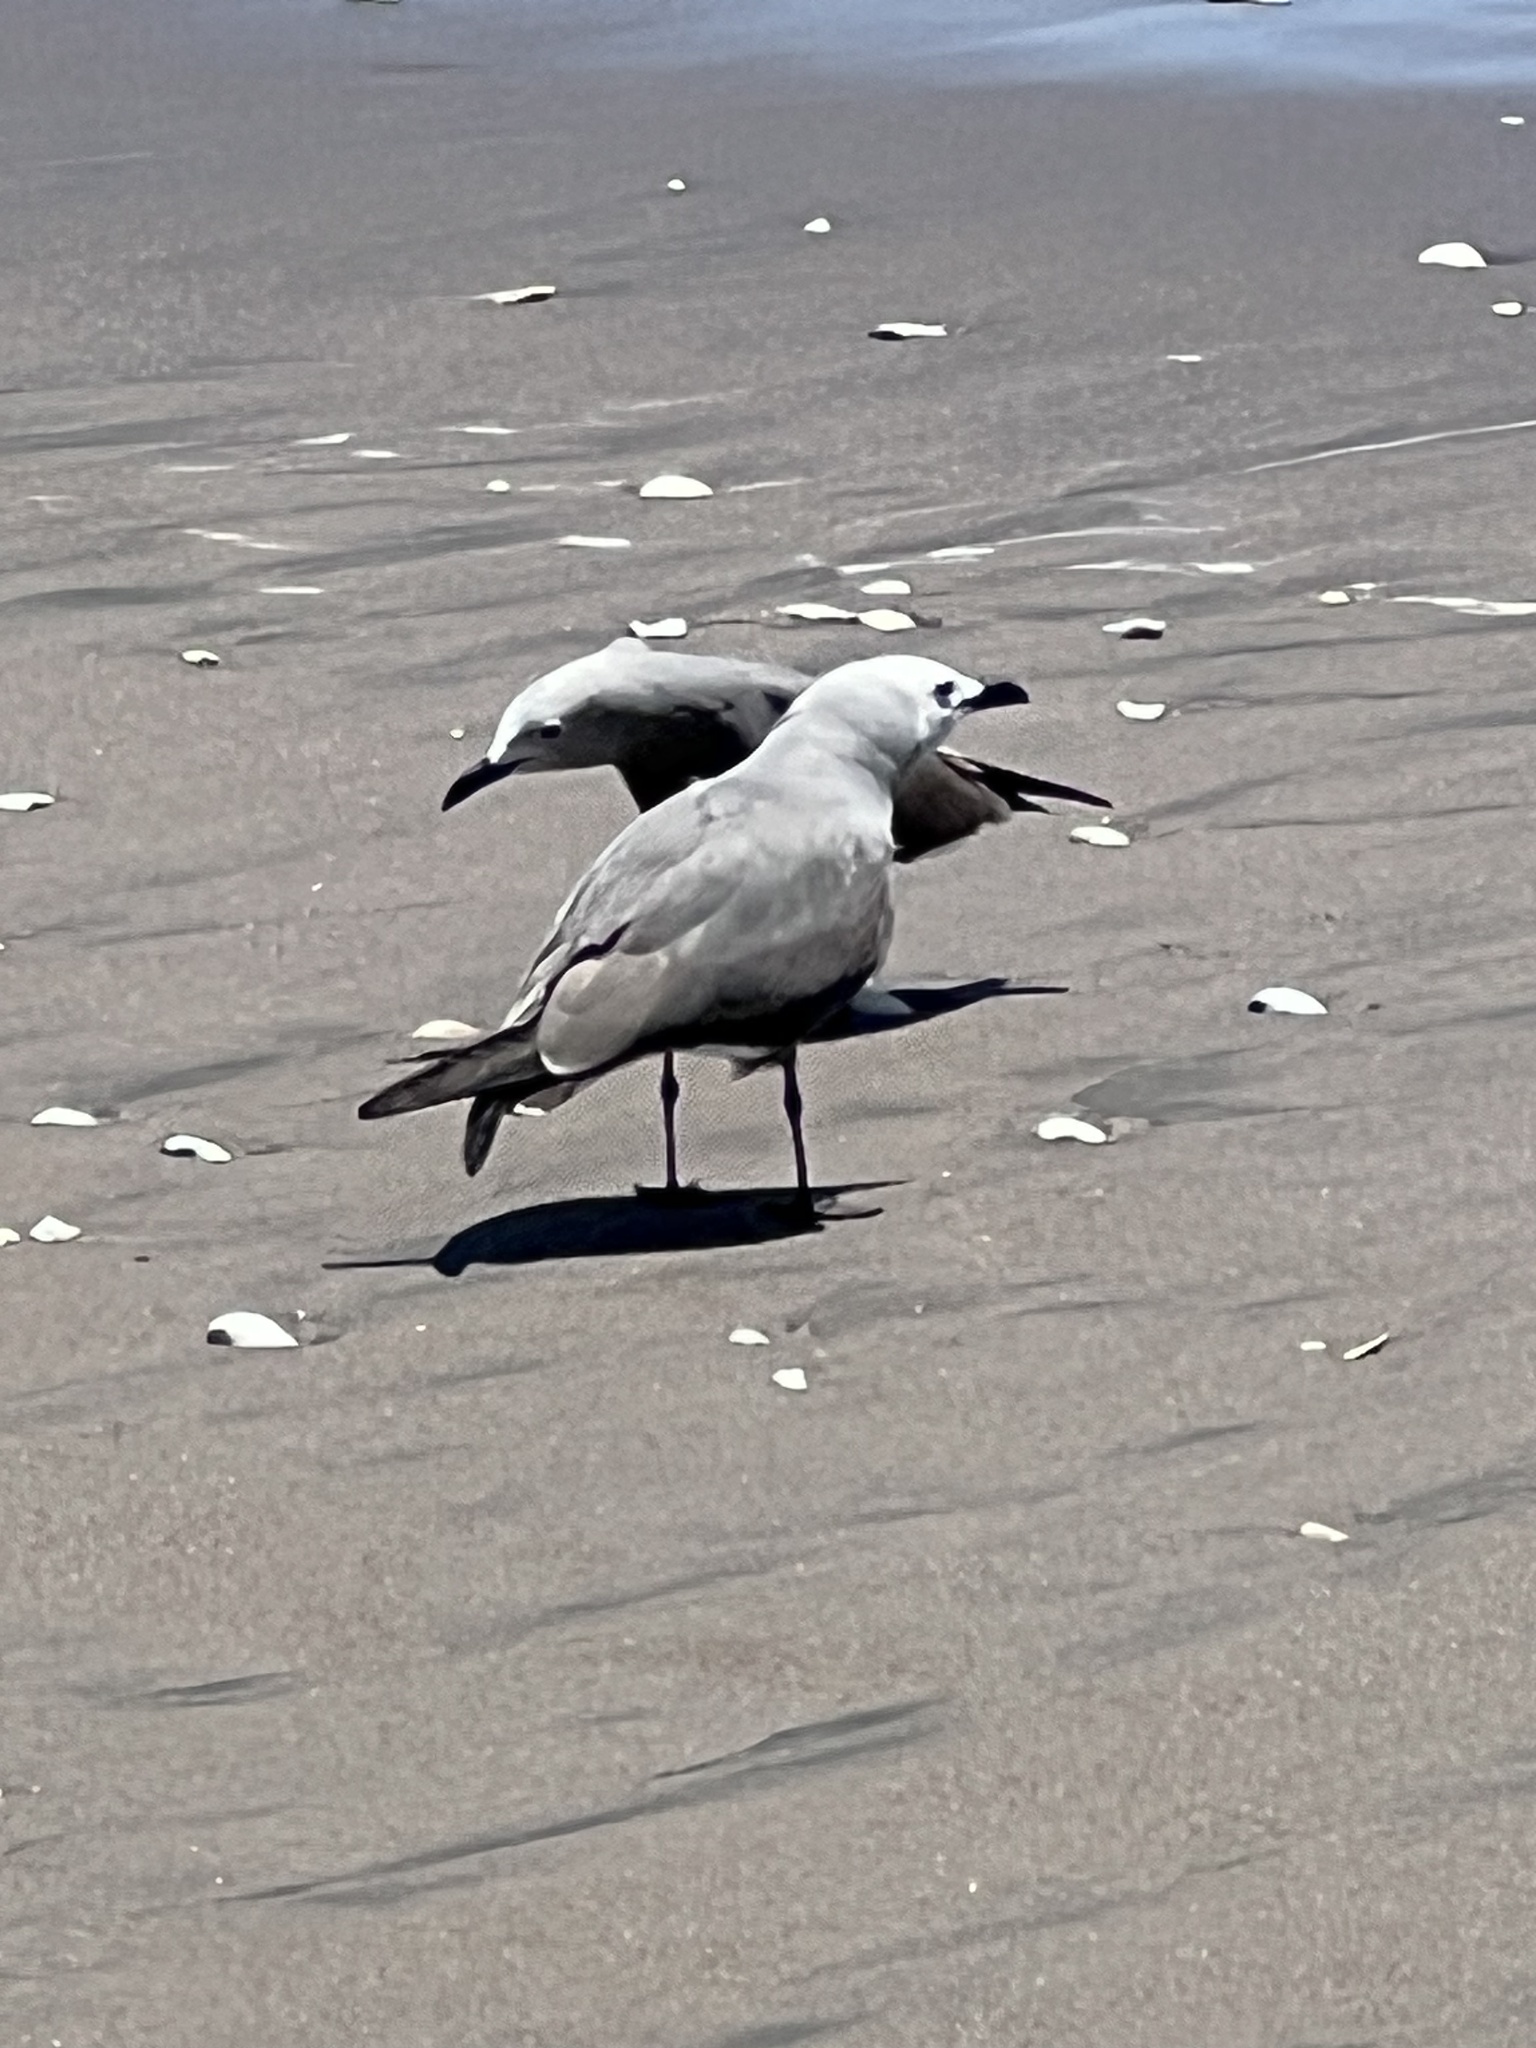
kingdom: Animalia
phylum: Chordata
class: Aves
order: Charadriiformes
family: Laridae
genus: Leucophaeus
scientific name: Leucophaeus modestus
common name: Gray gull
